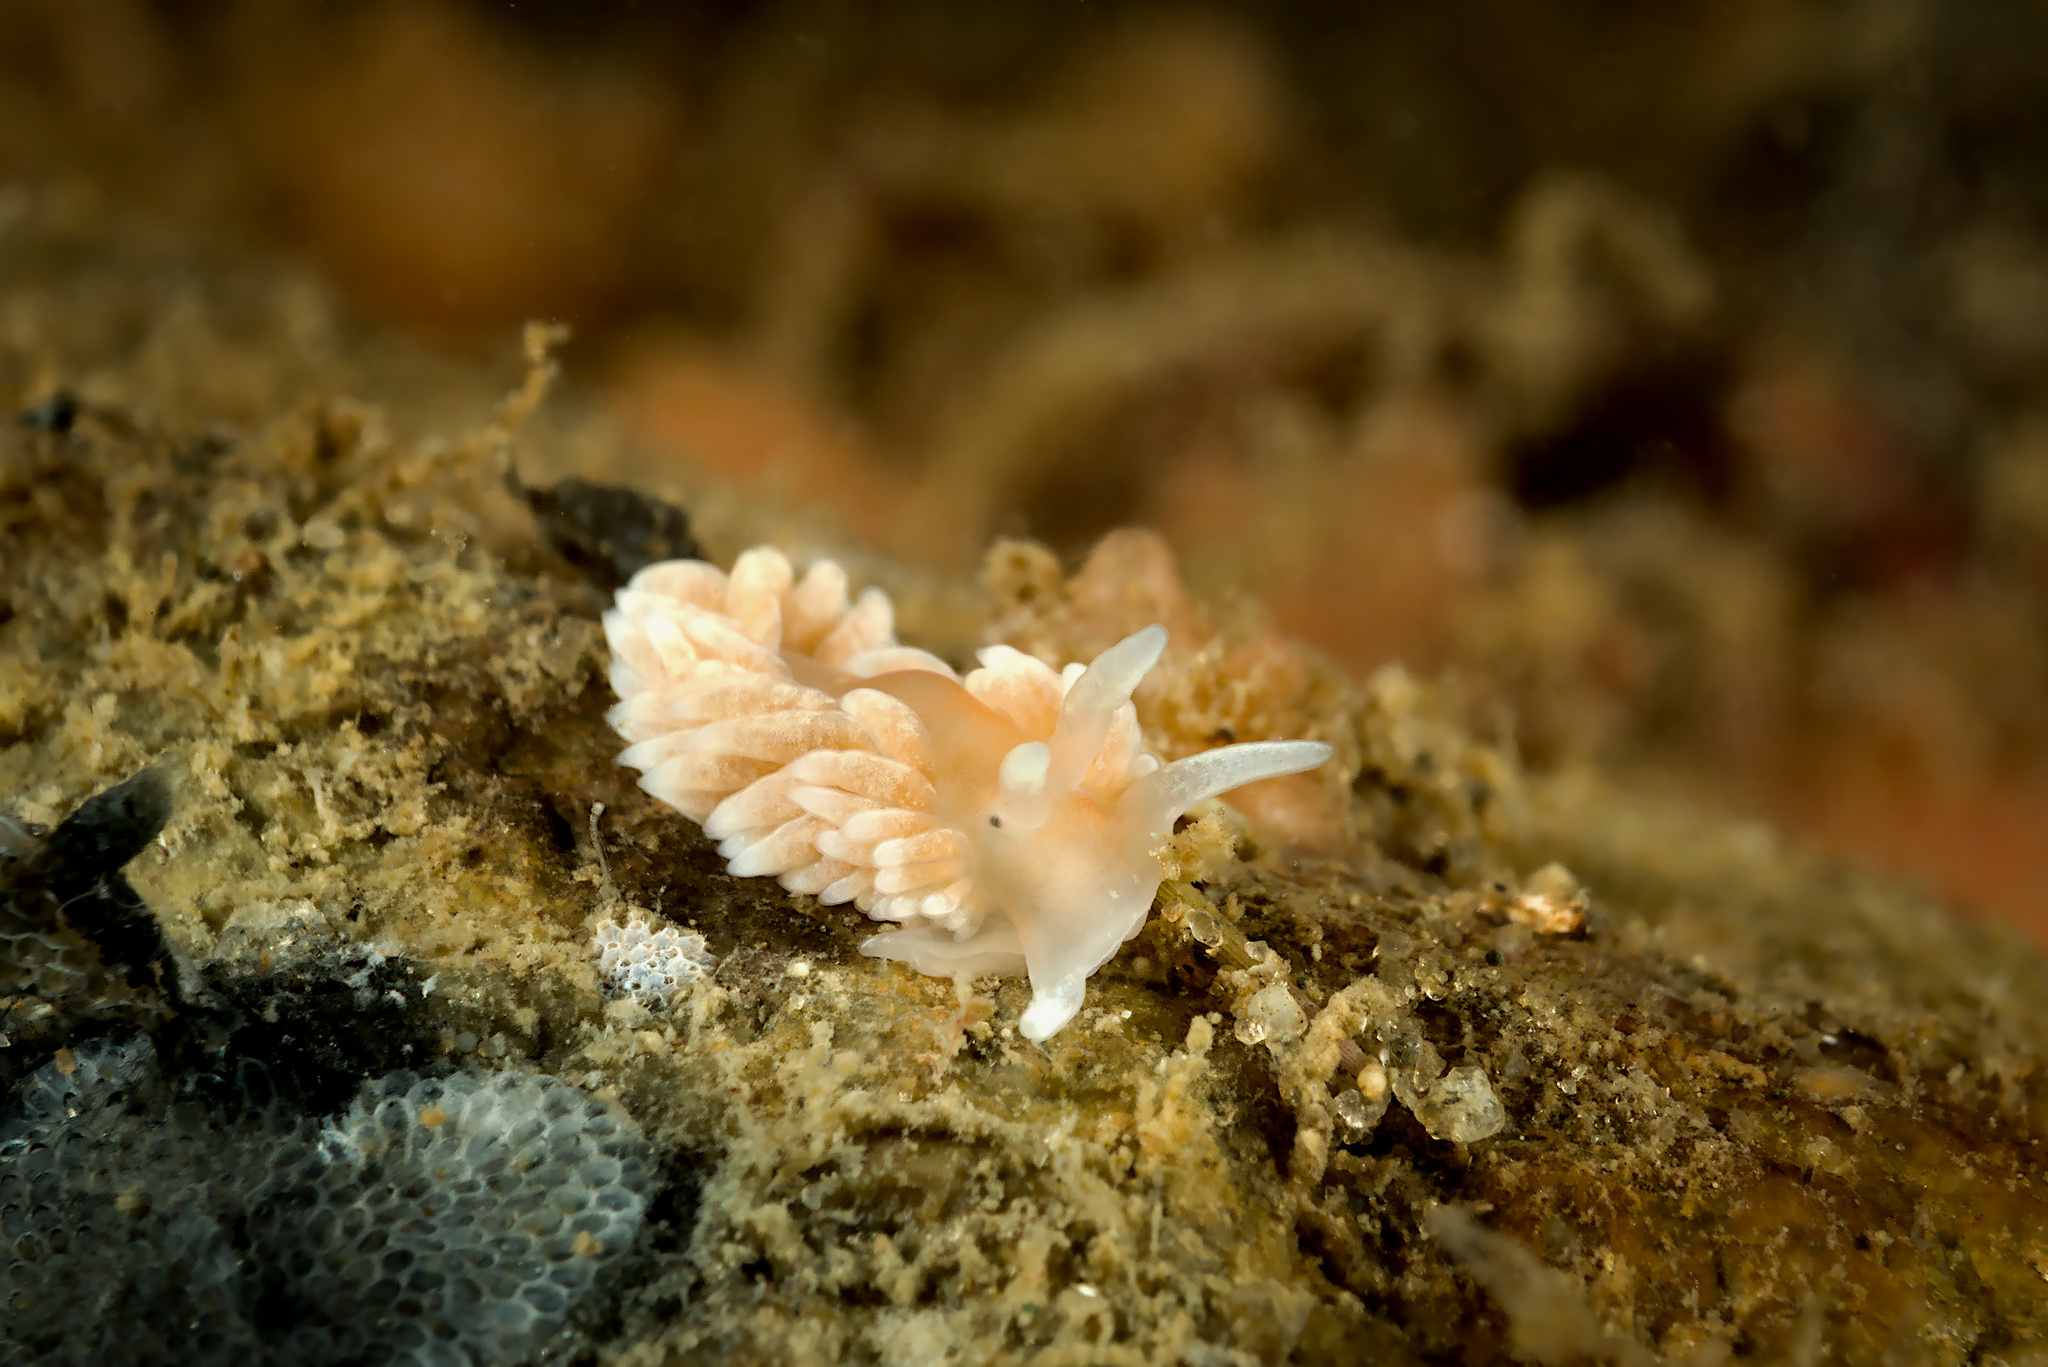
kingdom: Animalia
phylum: Mollusca
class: Gastropoda
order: Nudibranchia
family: Aeolidiidae
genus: Aeolidiella
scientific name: Aeolidiella glauca
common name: Orange-brown aeolid
